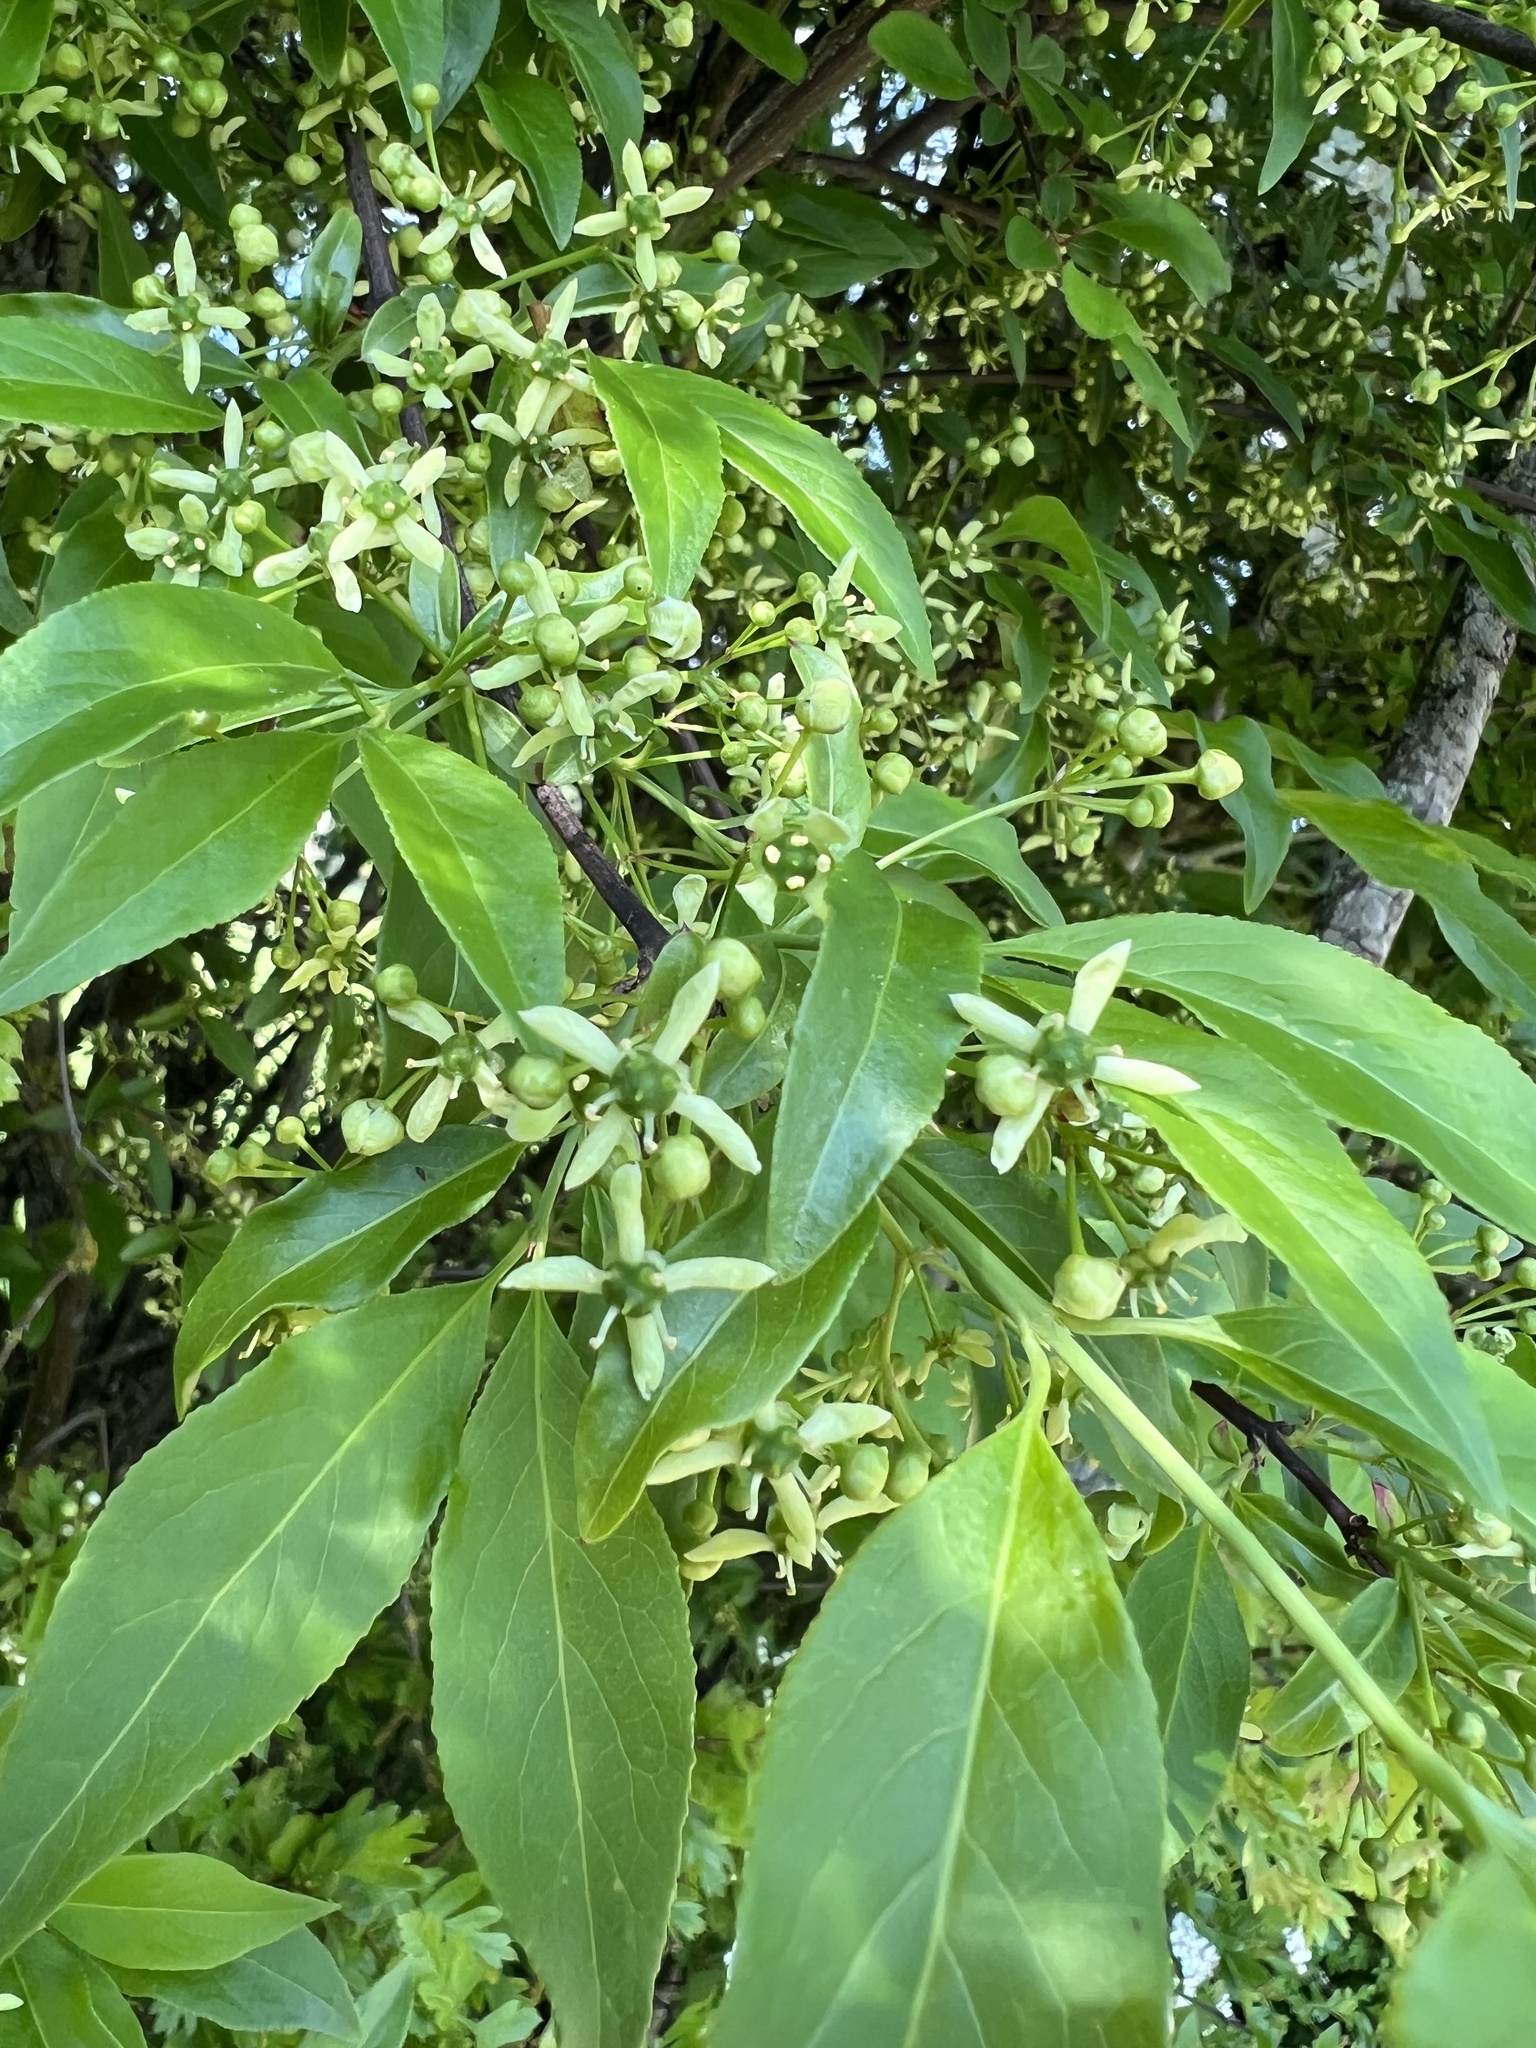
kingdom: Plantae
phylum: Tracheophyta
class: Magnoliopsida
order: Celastrales
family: Celastraceae
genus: Euonymus
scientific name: Euonymus europaeus
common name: Spindle
